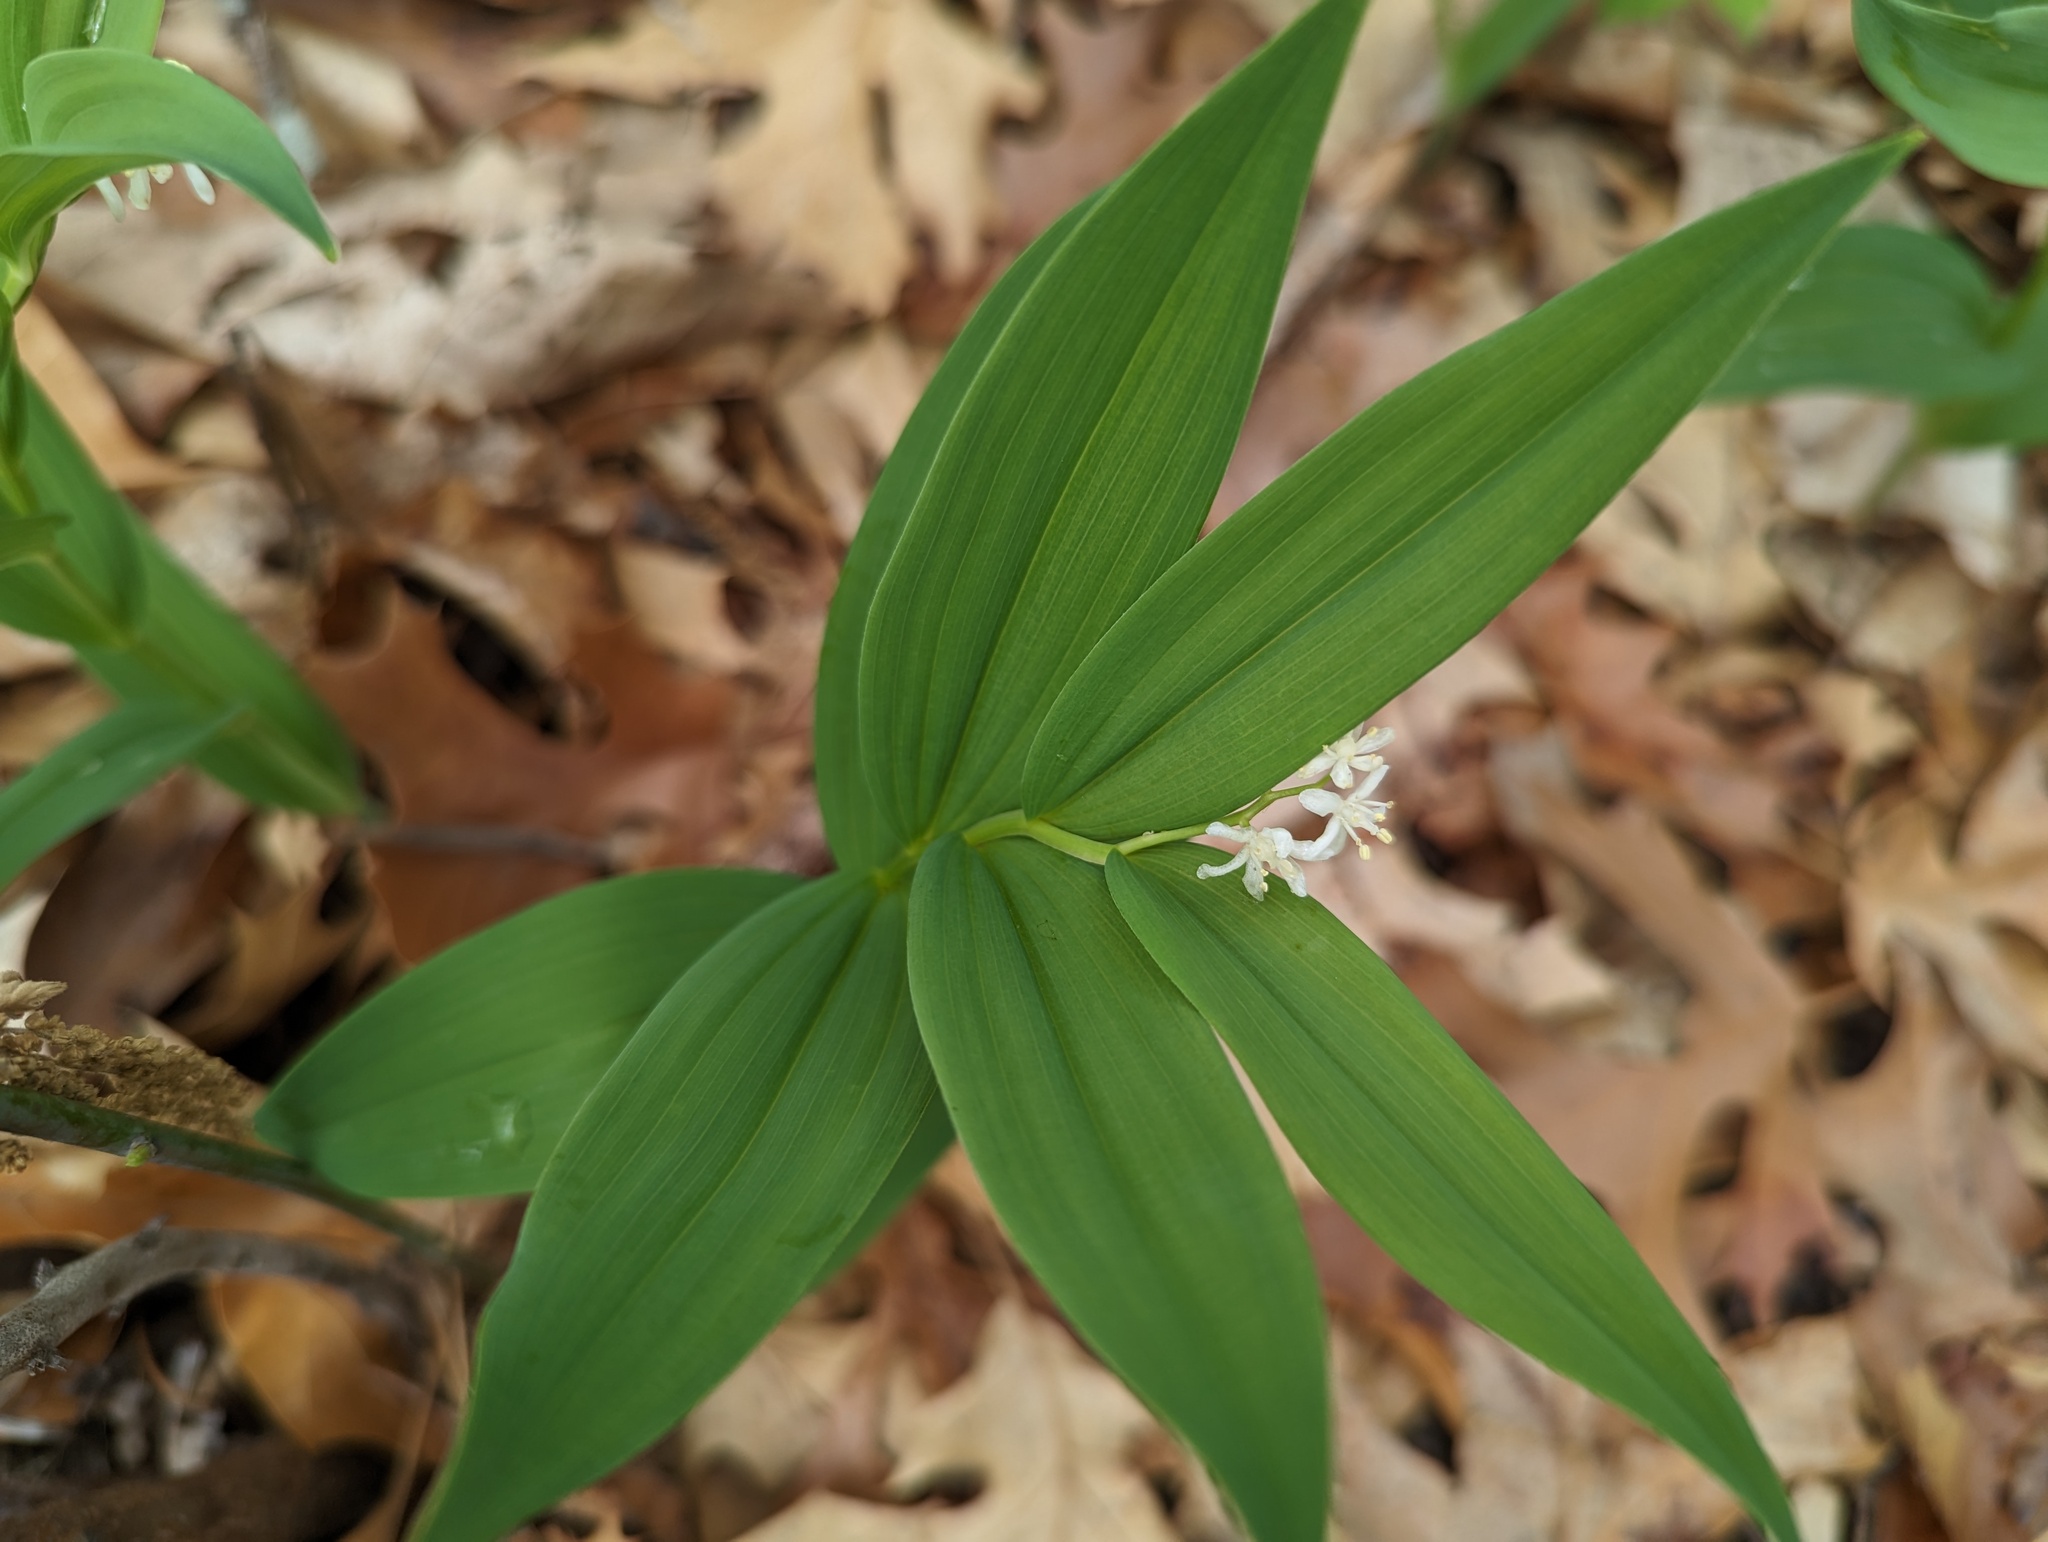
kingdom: Plantae
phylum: Tracheophyta
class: Liliopsida
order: Asparagales
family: Asparagaceae
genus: Maianthemum
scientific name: Maianthemum stellatum
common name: Little false solomon's seal
